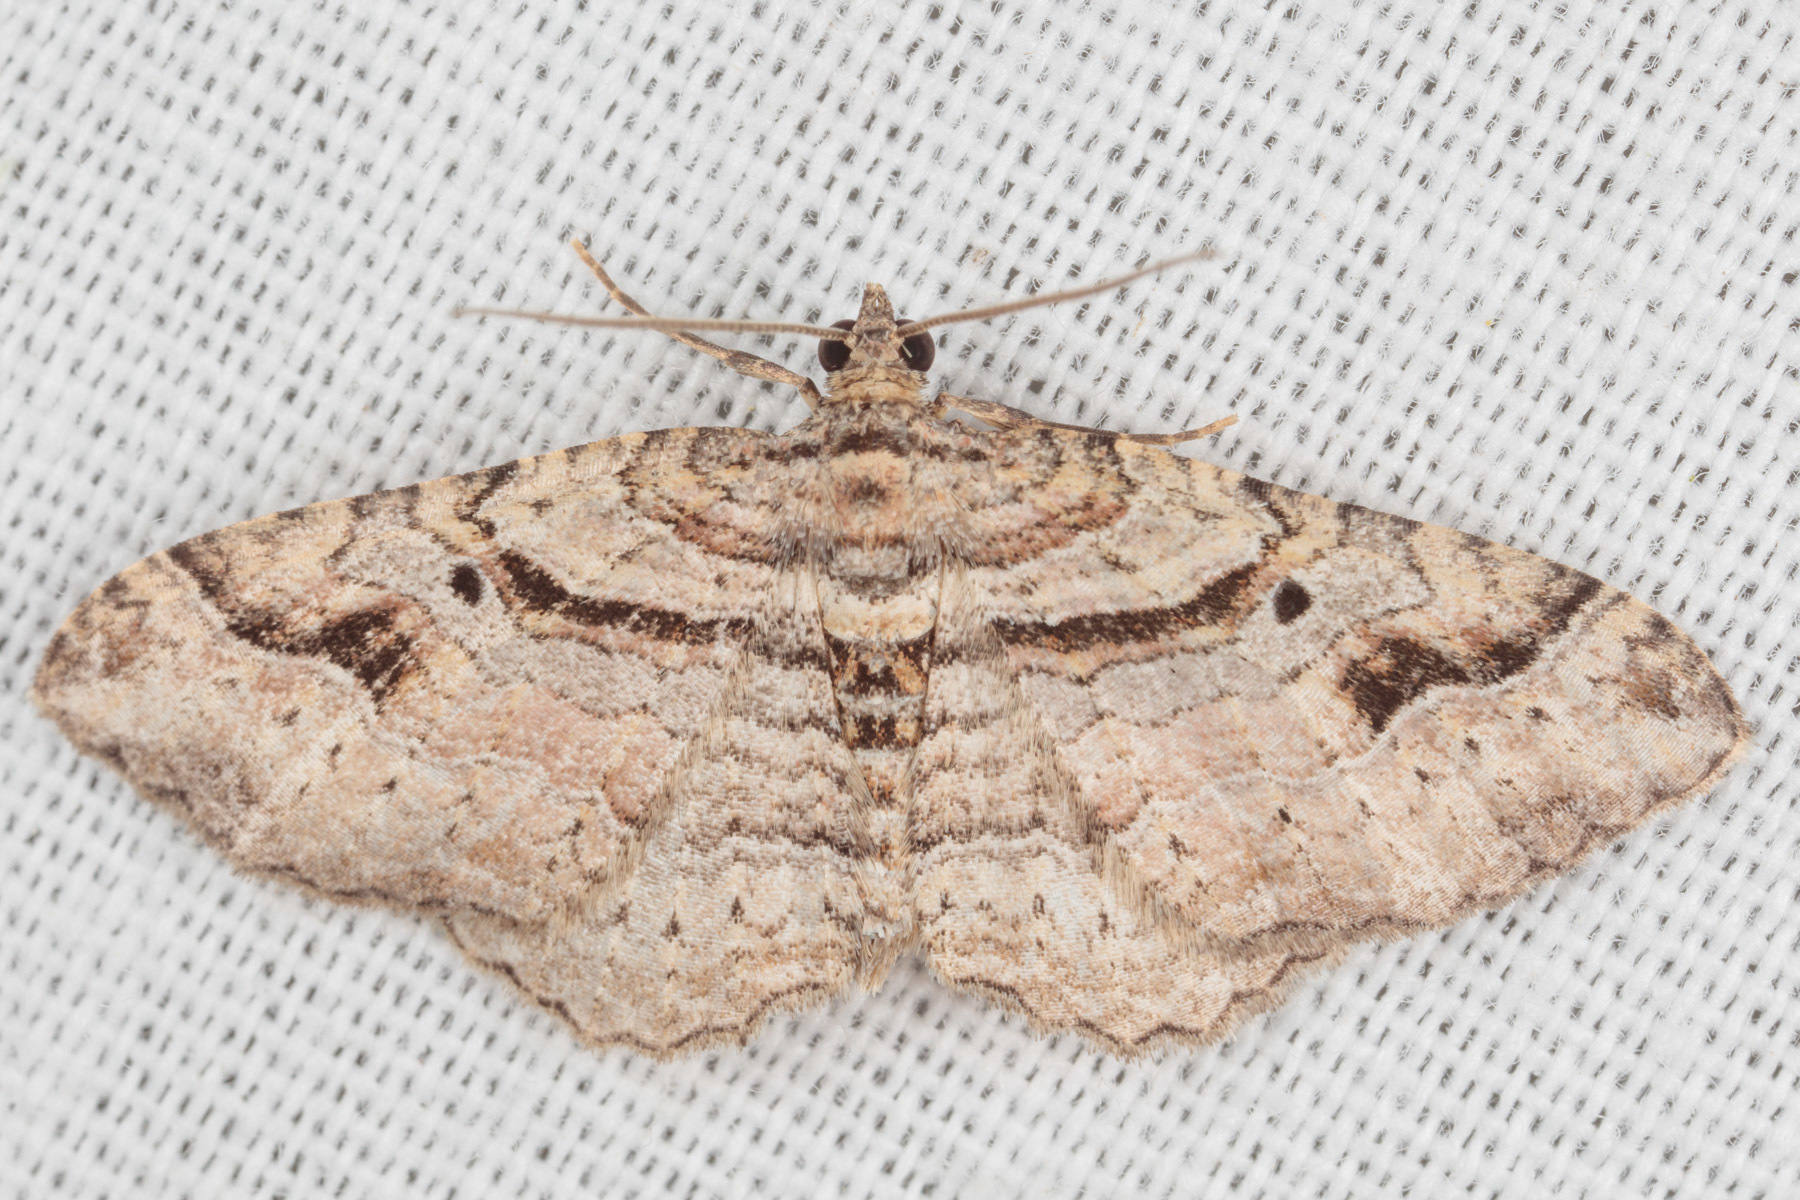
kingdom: Animalia
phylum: Arthropoda
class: Insecta
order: Lepidoptera
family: Geometridae
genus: Costaconvexa
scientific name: Costaconvexa centrostrigaria
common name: Bent-line carpet
